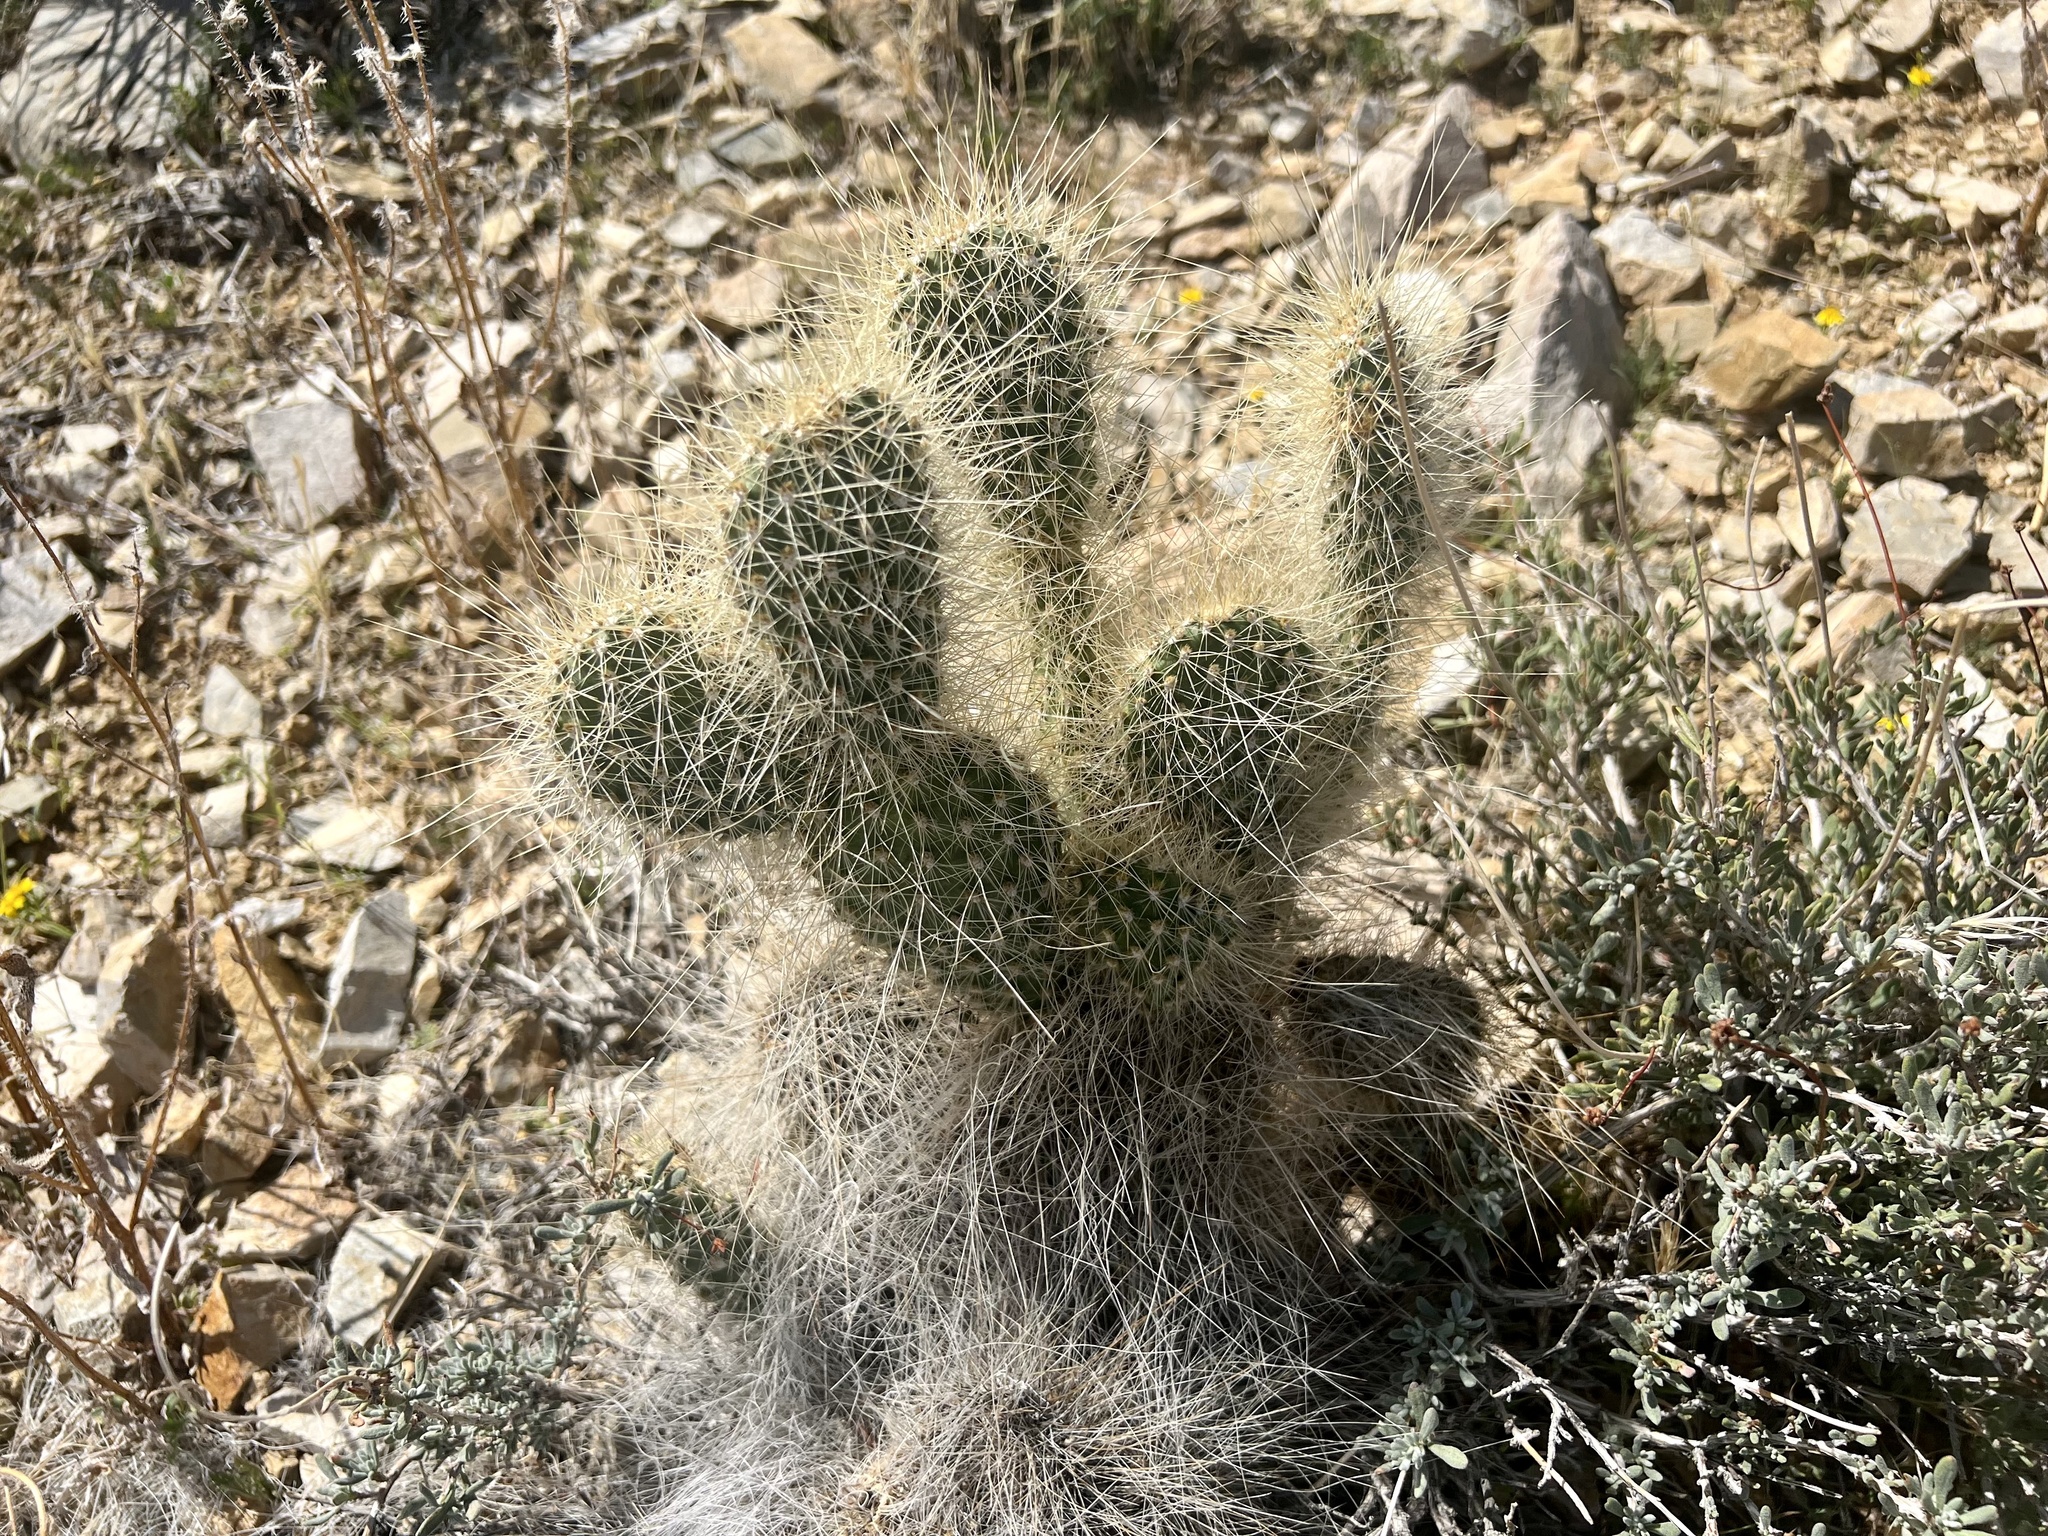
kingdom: Plantae
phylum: Tracheophyta
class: Magnoliopsida
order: Caryophyllales
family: Cactaceae
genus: Opuntia
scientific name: Opuntia polyacantha
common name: Plains prickly-pear
